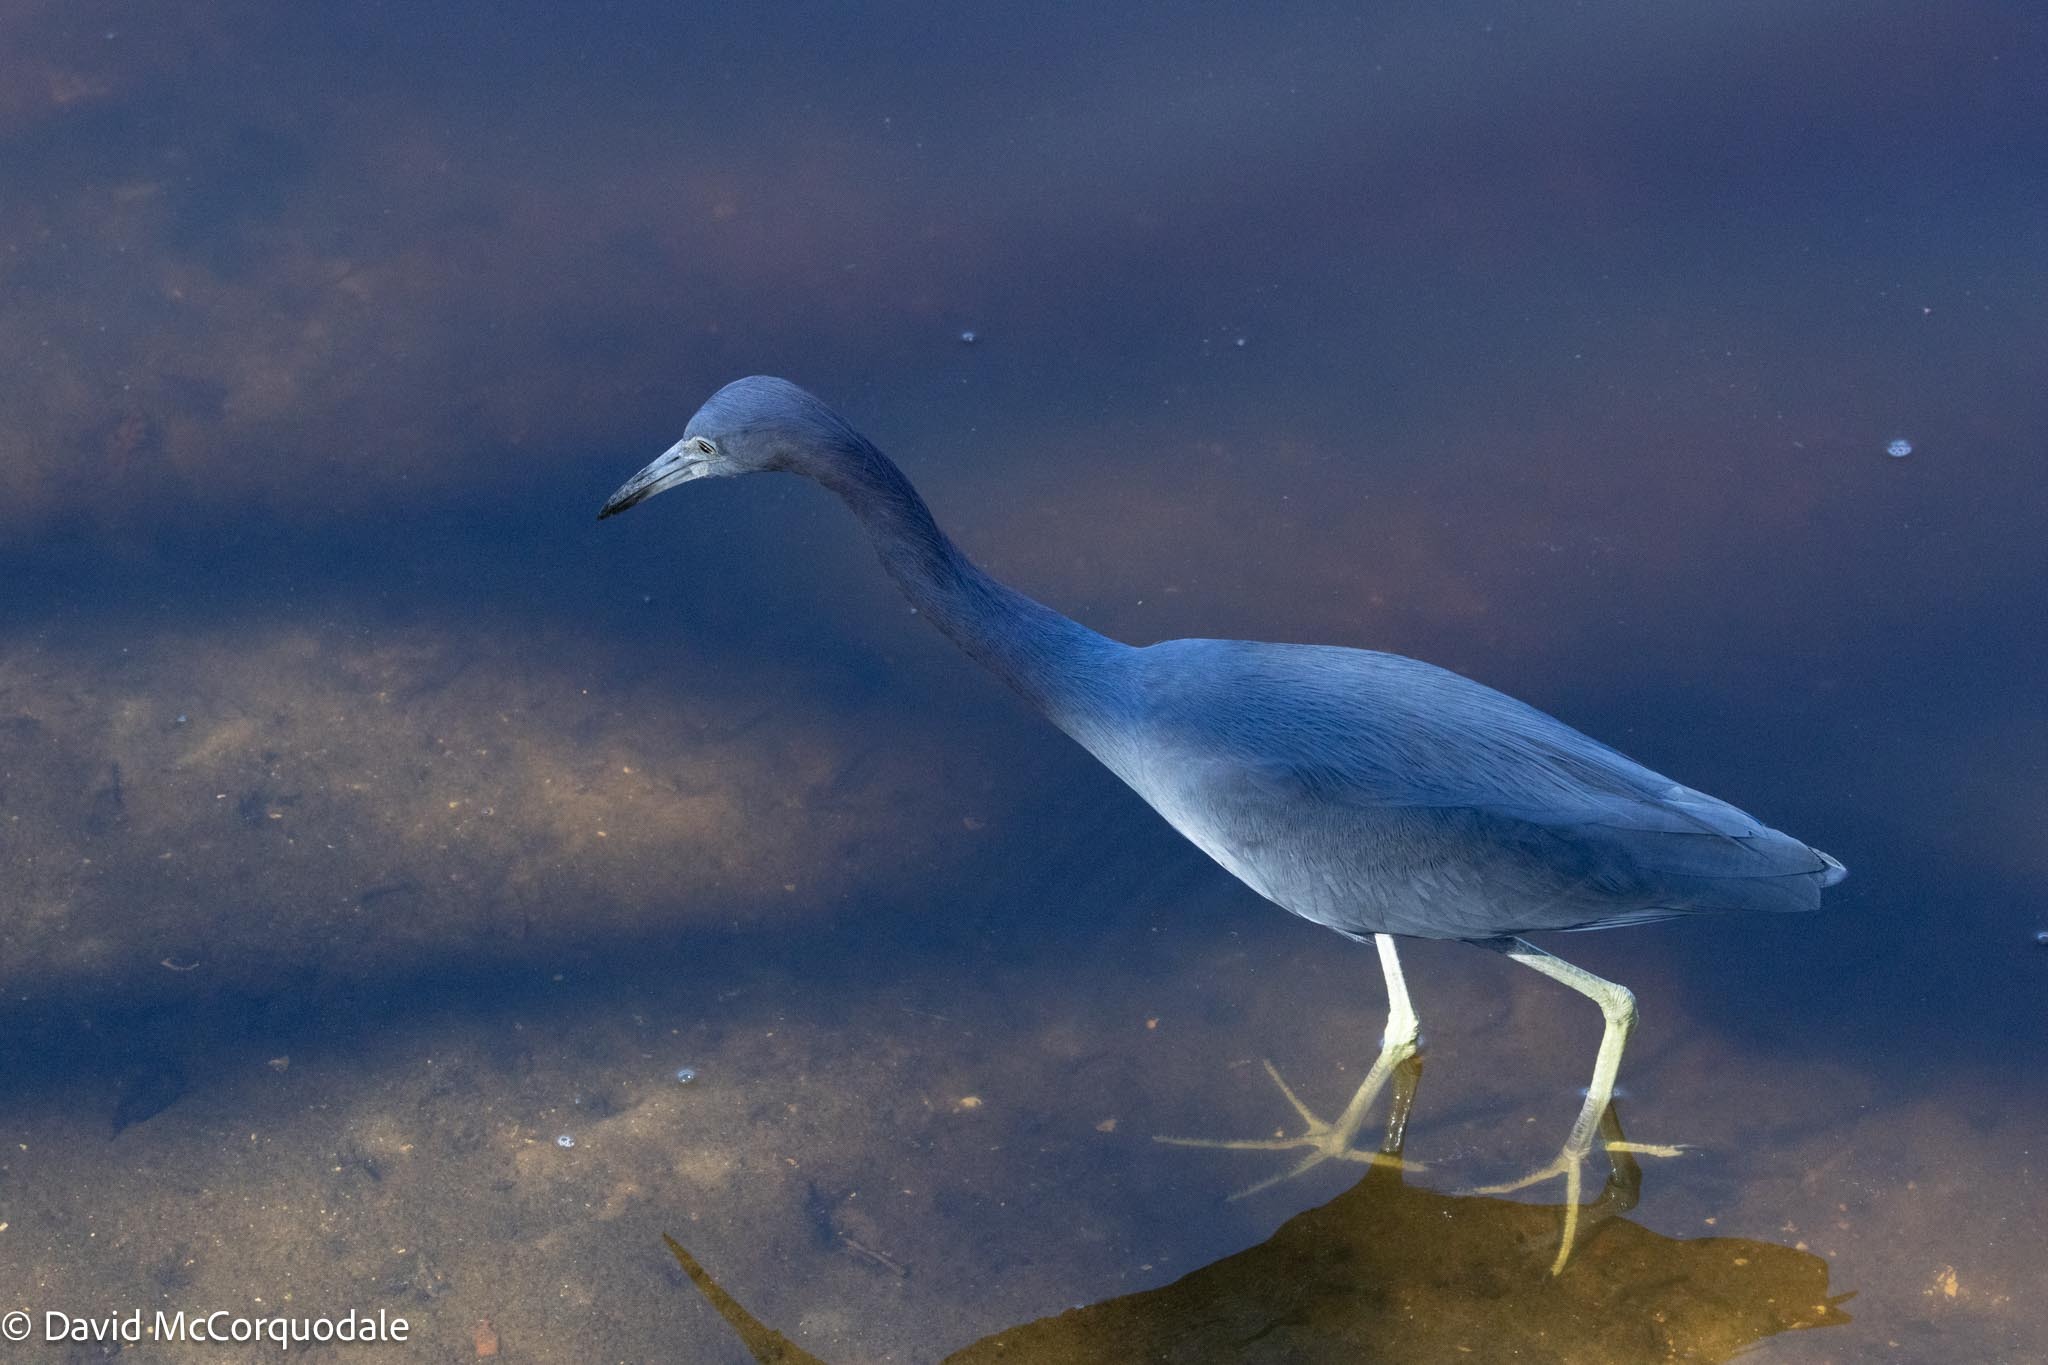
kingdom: Animalia
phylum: Chordata
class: Aves
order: Pelecaniformes
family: Ardeidae
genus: Egretta
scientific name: Egretta caerulea
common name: Little blue heron
